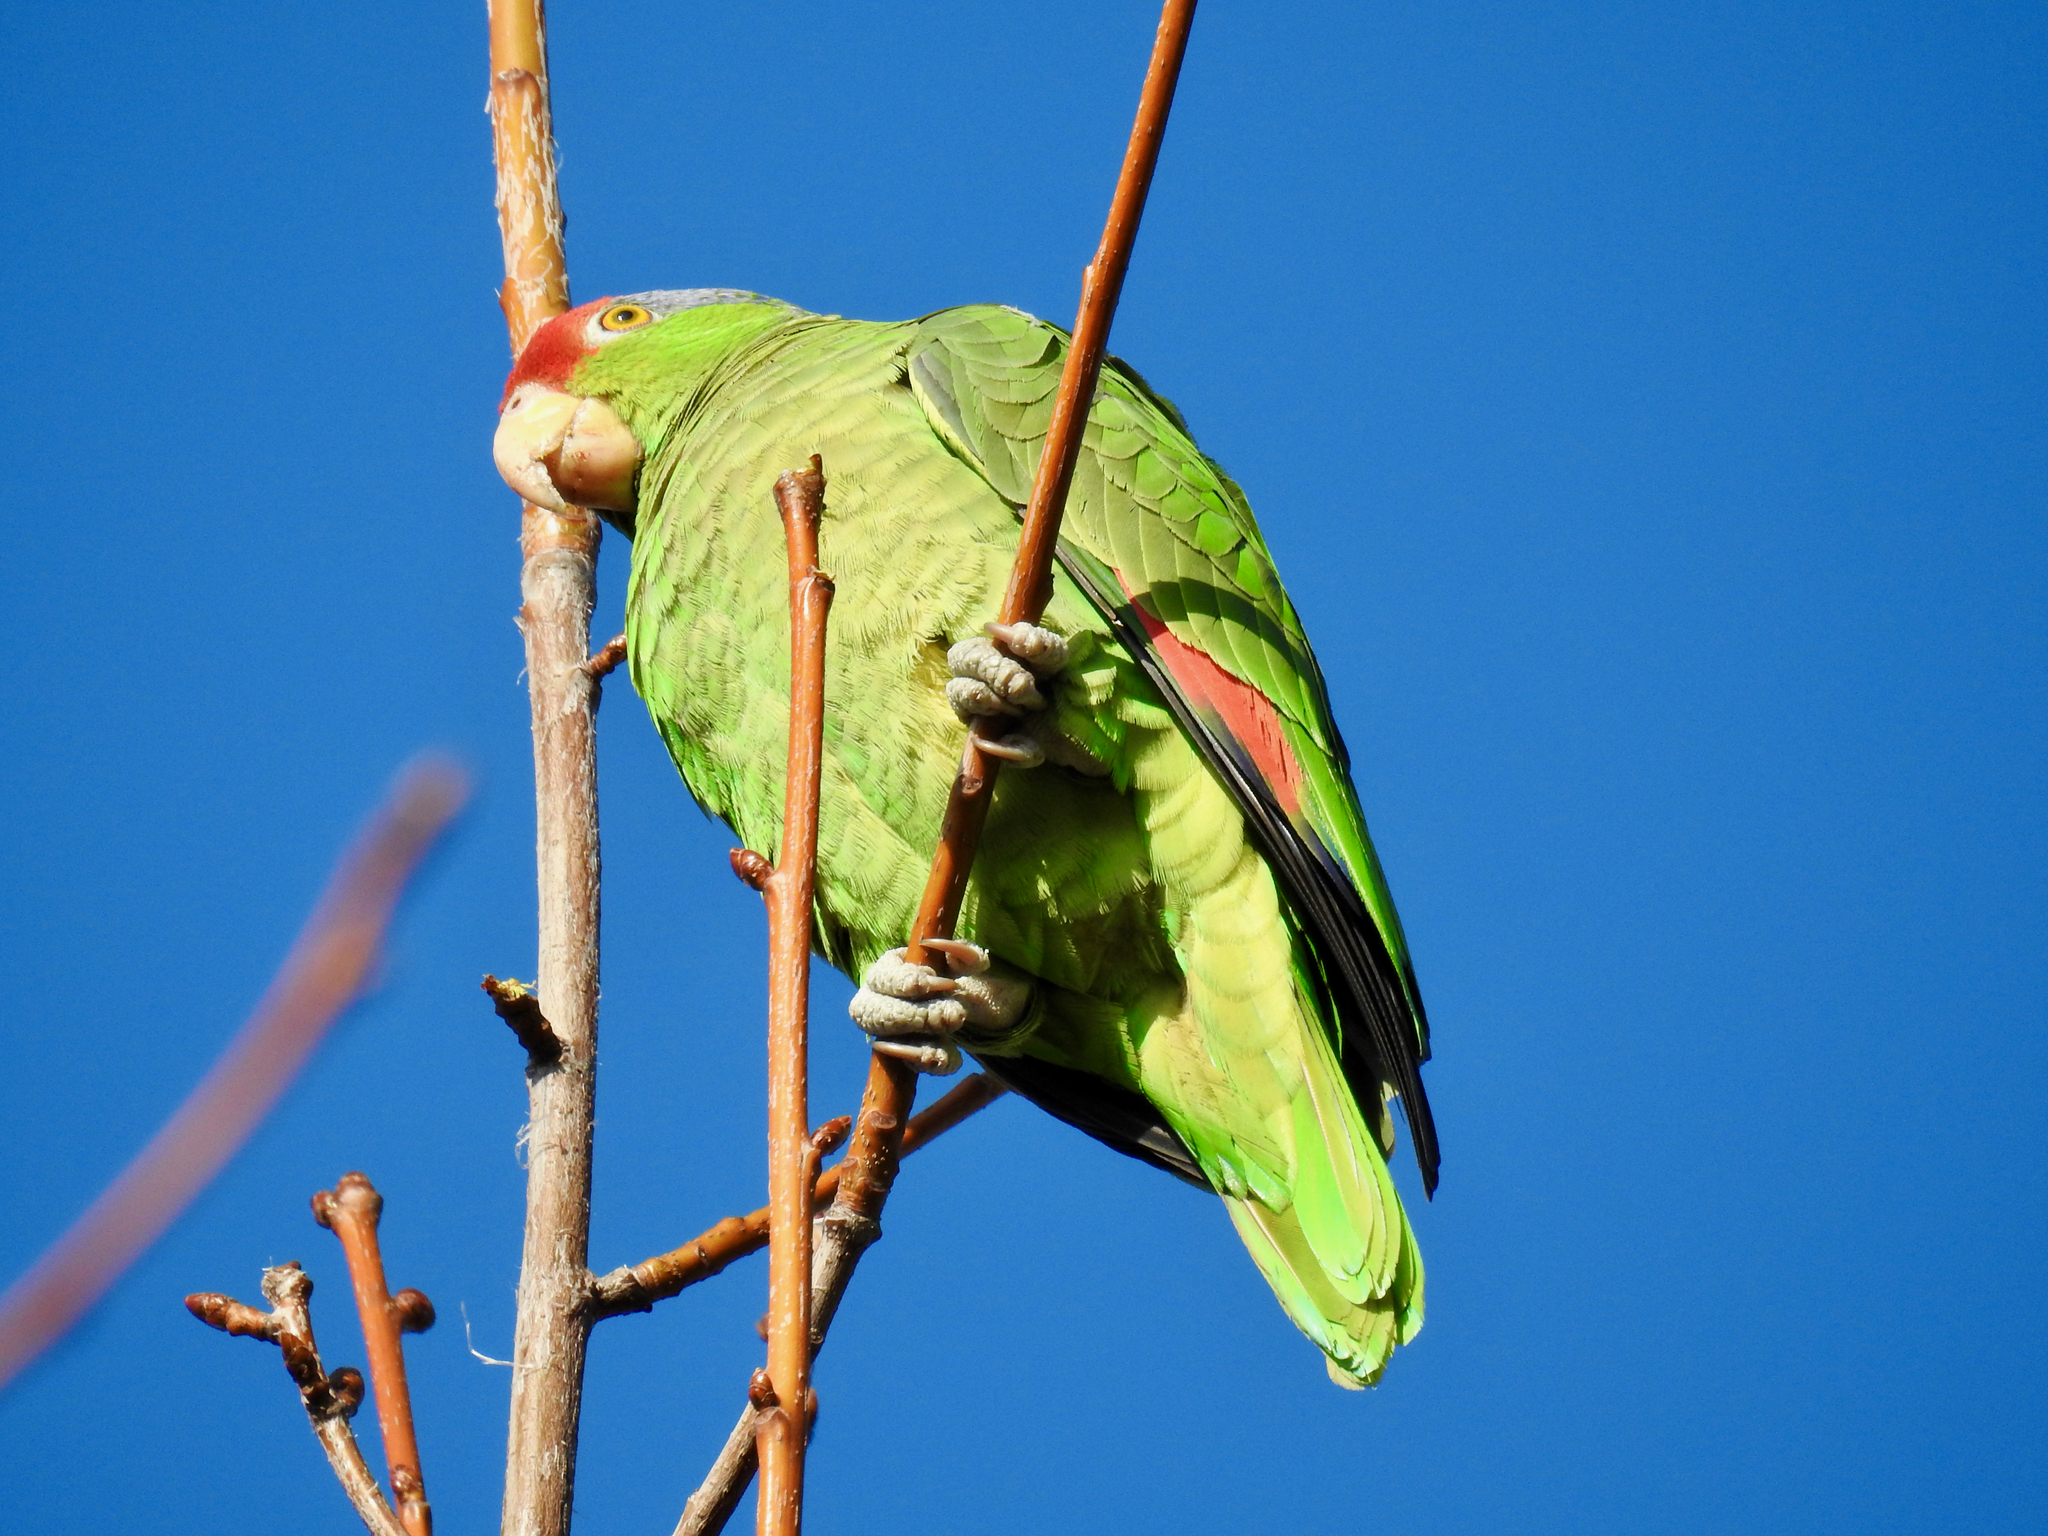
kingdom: Animalia
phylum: Chordata
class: Aves
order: Psittaciformes
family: Psittacidae
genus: Amazona
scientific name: Amazona viridigenalis
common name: Red-crowned amazon
